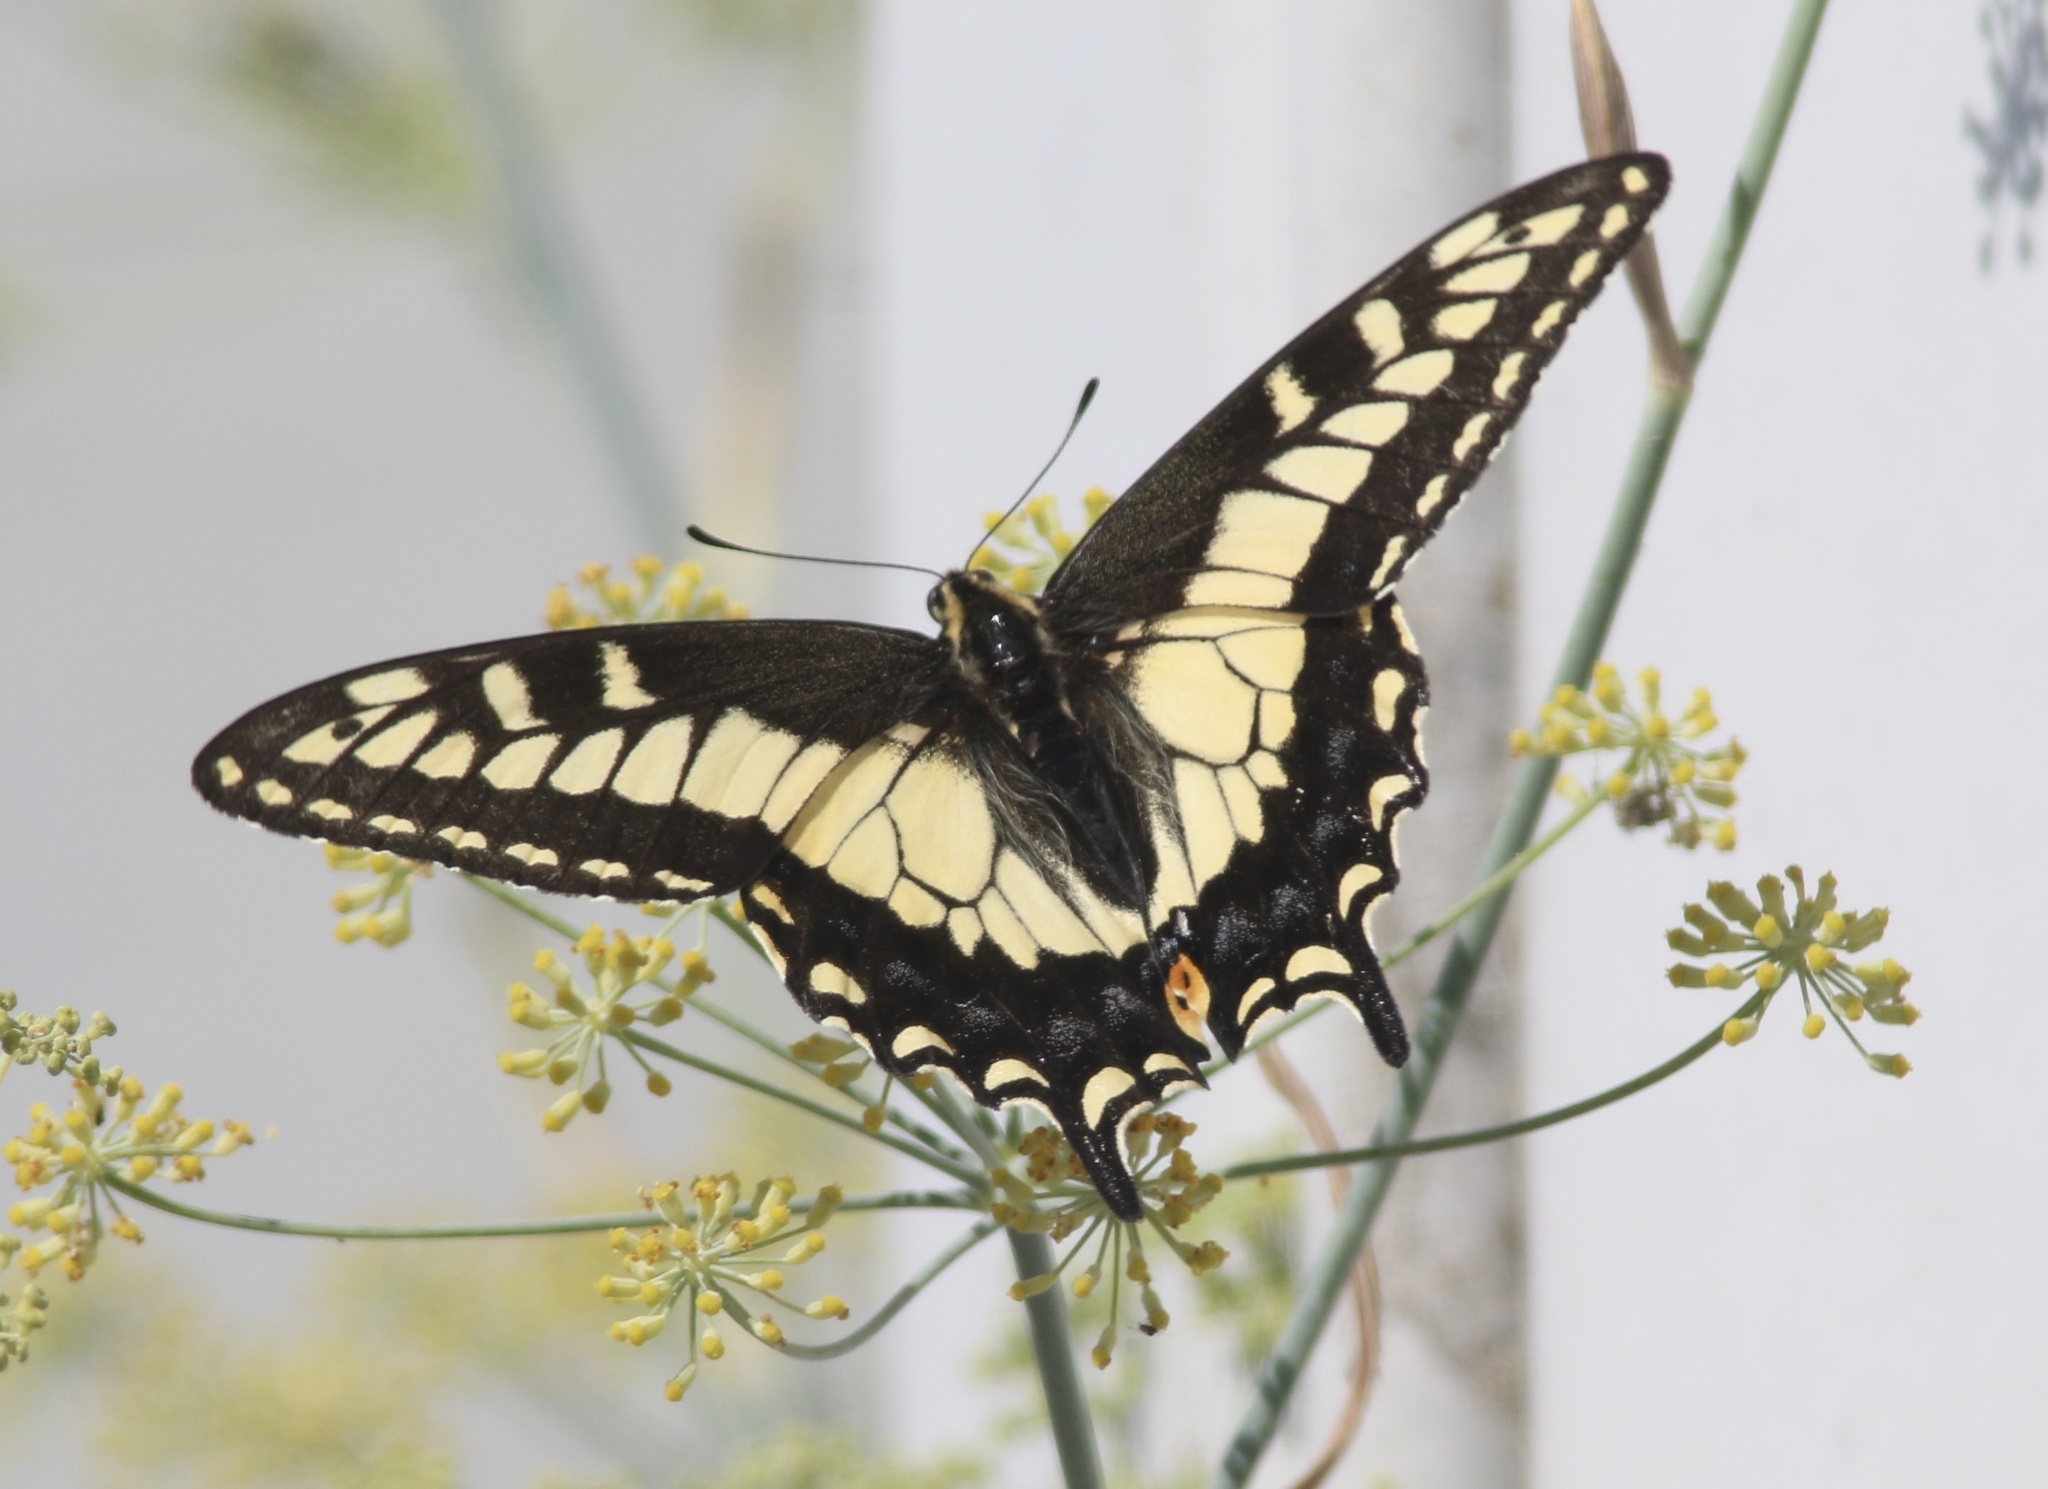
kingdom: Animalia
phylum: Arthropoda
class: Insecta
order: Lepidoptera
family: Papilionidae
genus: Papilio
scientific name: Papilio zelicaon
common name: Anise swallowtail
